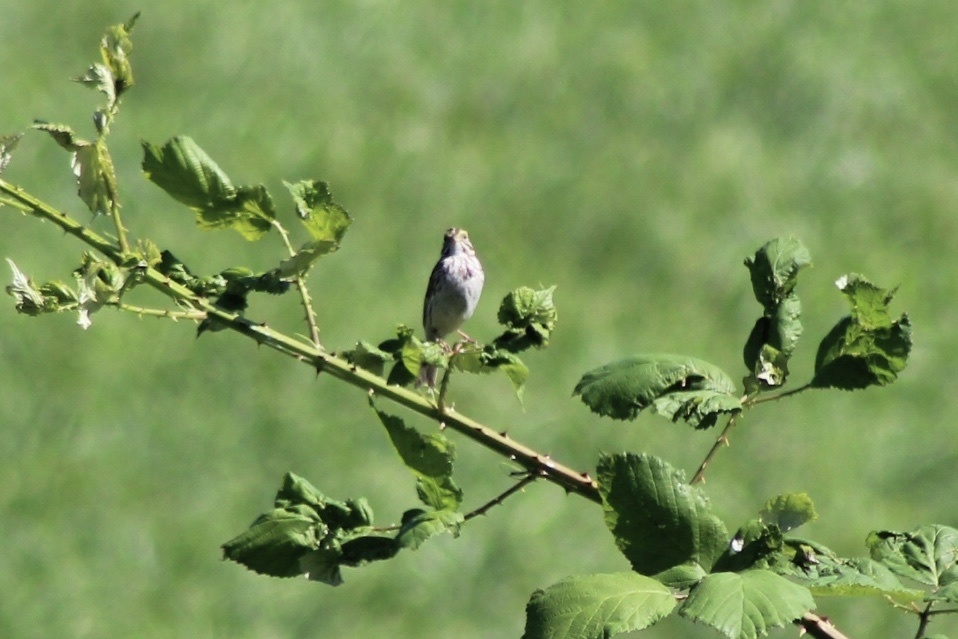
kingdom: Animalia
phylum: Chordata
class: Aves
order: Passeriformes
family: Passerellidae
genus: Passerculus
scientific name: Passerculus sandwichensis
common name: Savannah sparrow
